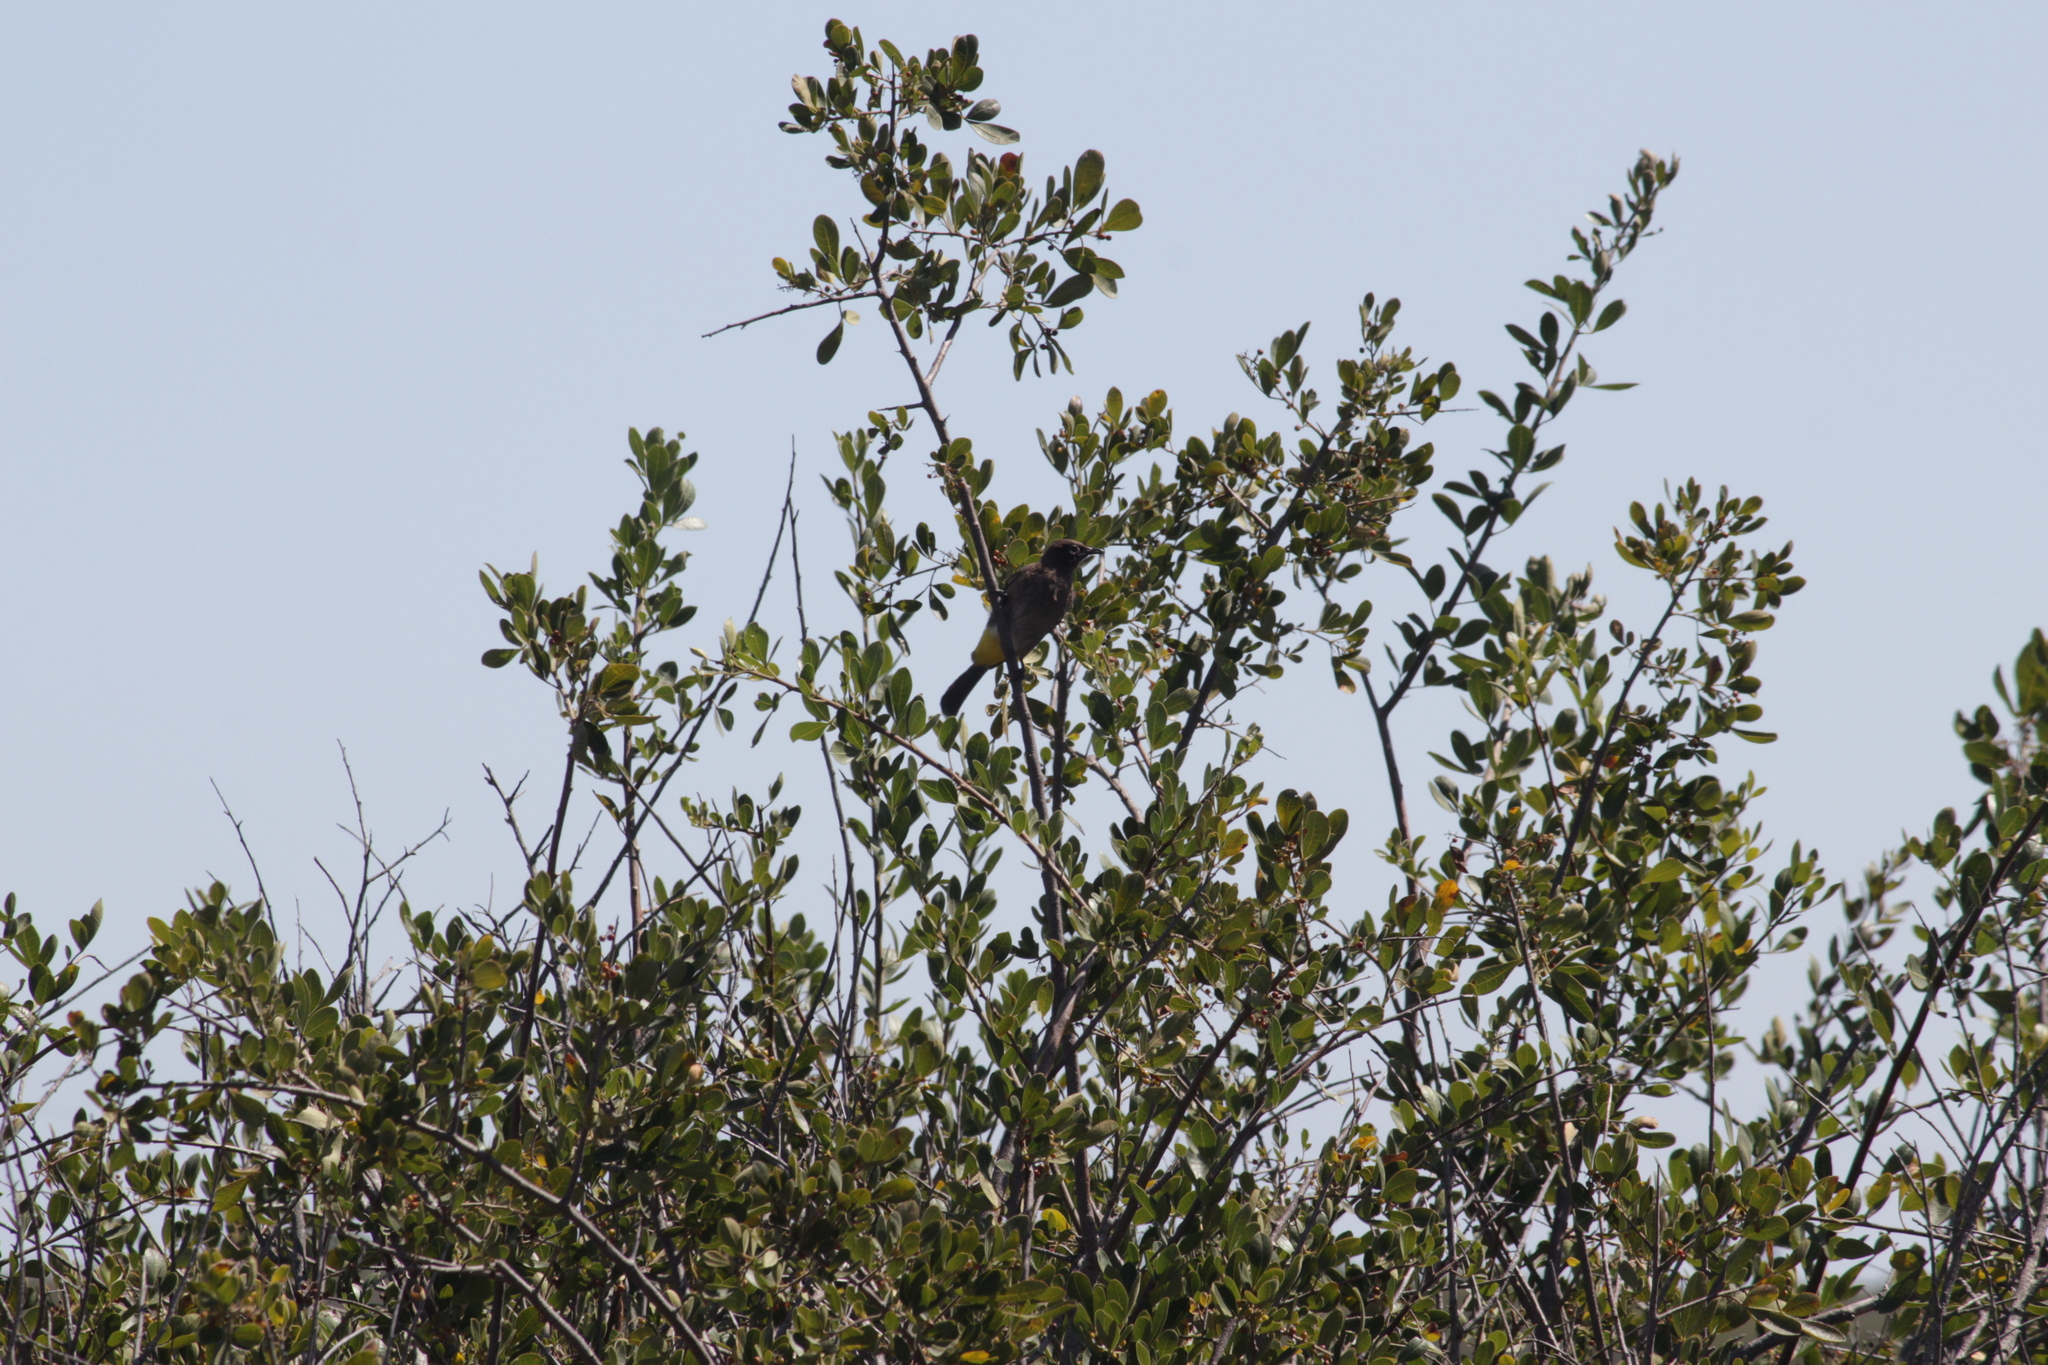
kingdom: Animalia
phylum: Chordata
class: Aves
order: Passeriformes
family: Pycnonotidae
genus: Pycnonotus
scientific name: Pycnonotus capensis
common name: Cape bulbul
